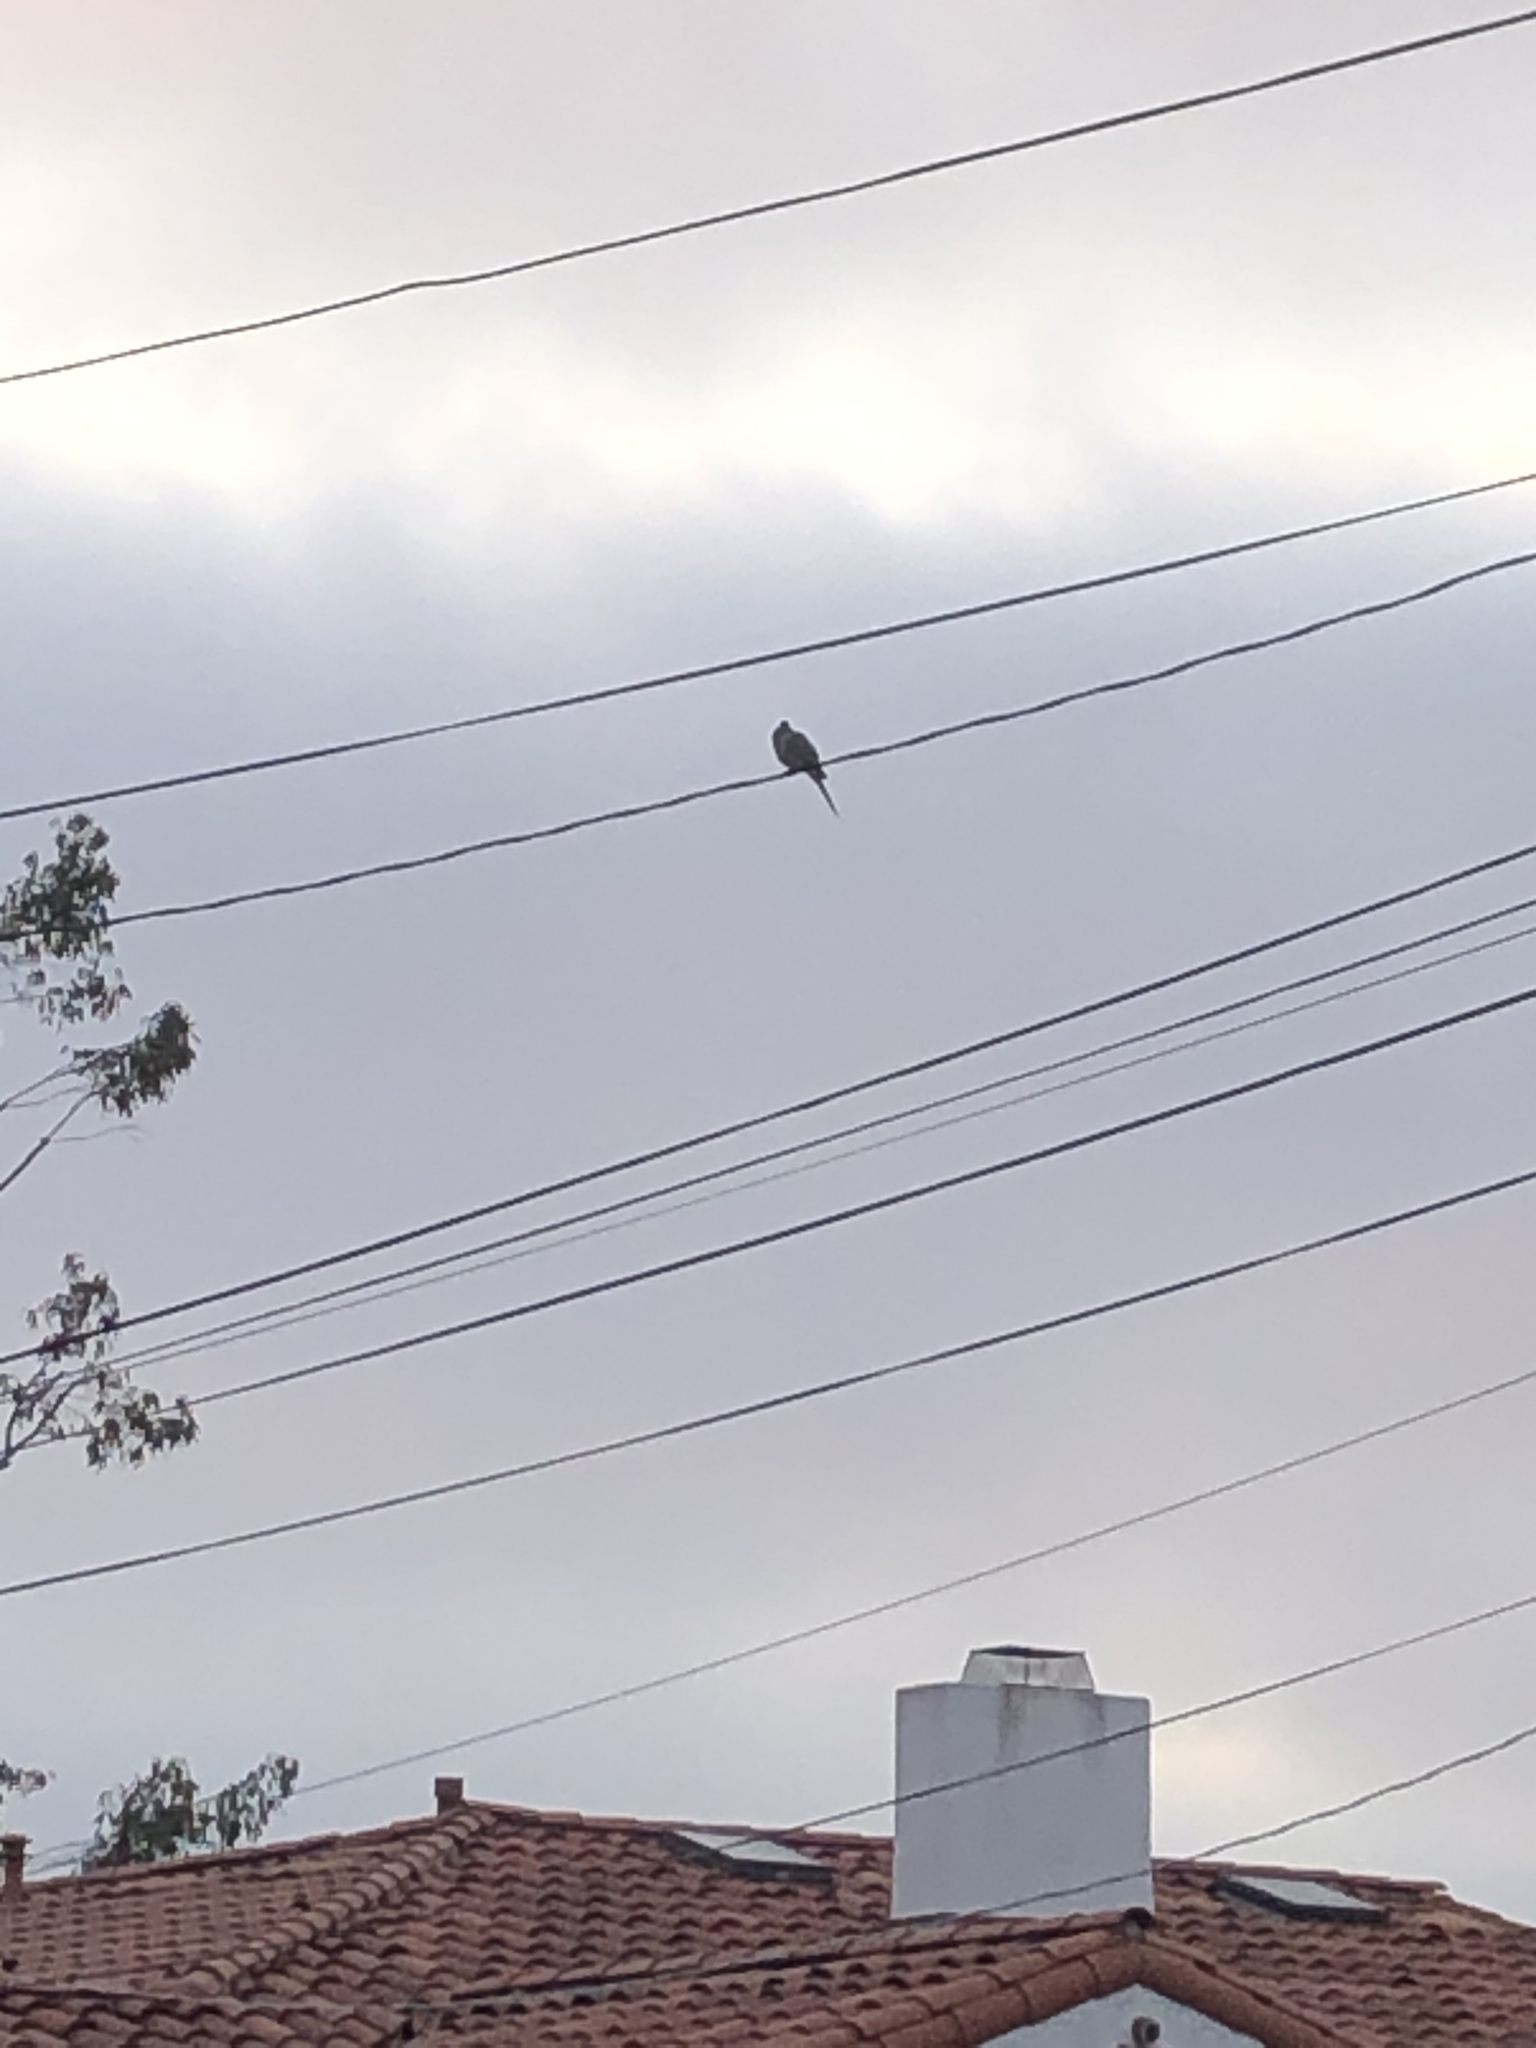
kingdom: Animalia
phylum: Chordata
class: Aves
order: Columbiformes
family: Columbidae
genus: Zenaida
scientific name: Zenaida macroura
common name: Mourning dove
